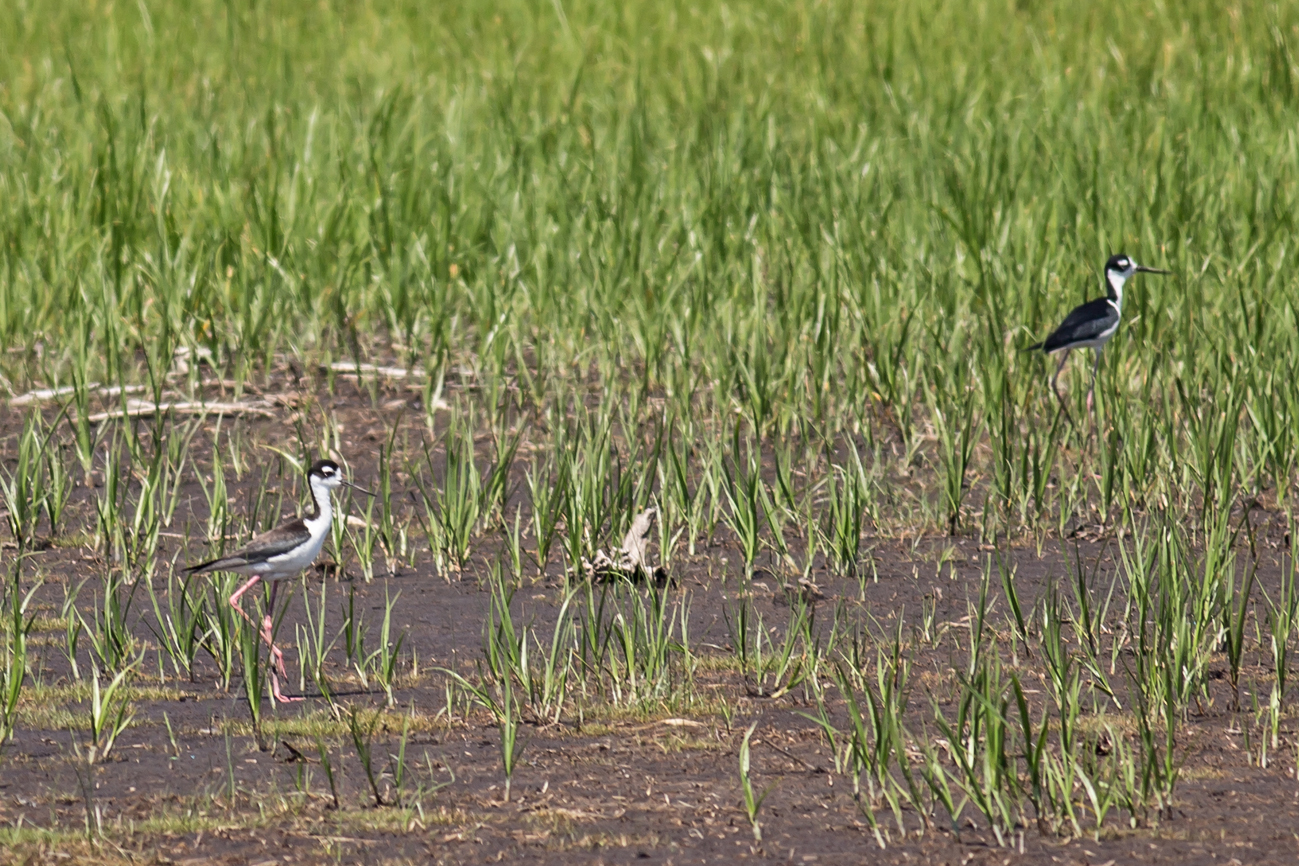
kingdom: Animalia
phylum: Chordata
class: Aves
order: Charadriiformes
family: Recurvirostridae
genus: Himantopus
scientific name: Himantopus mexicanus
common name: Black-necked stilt
